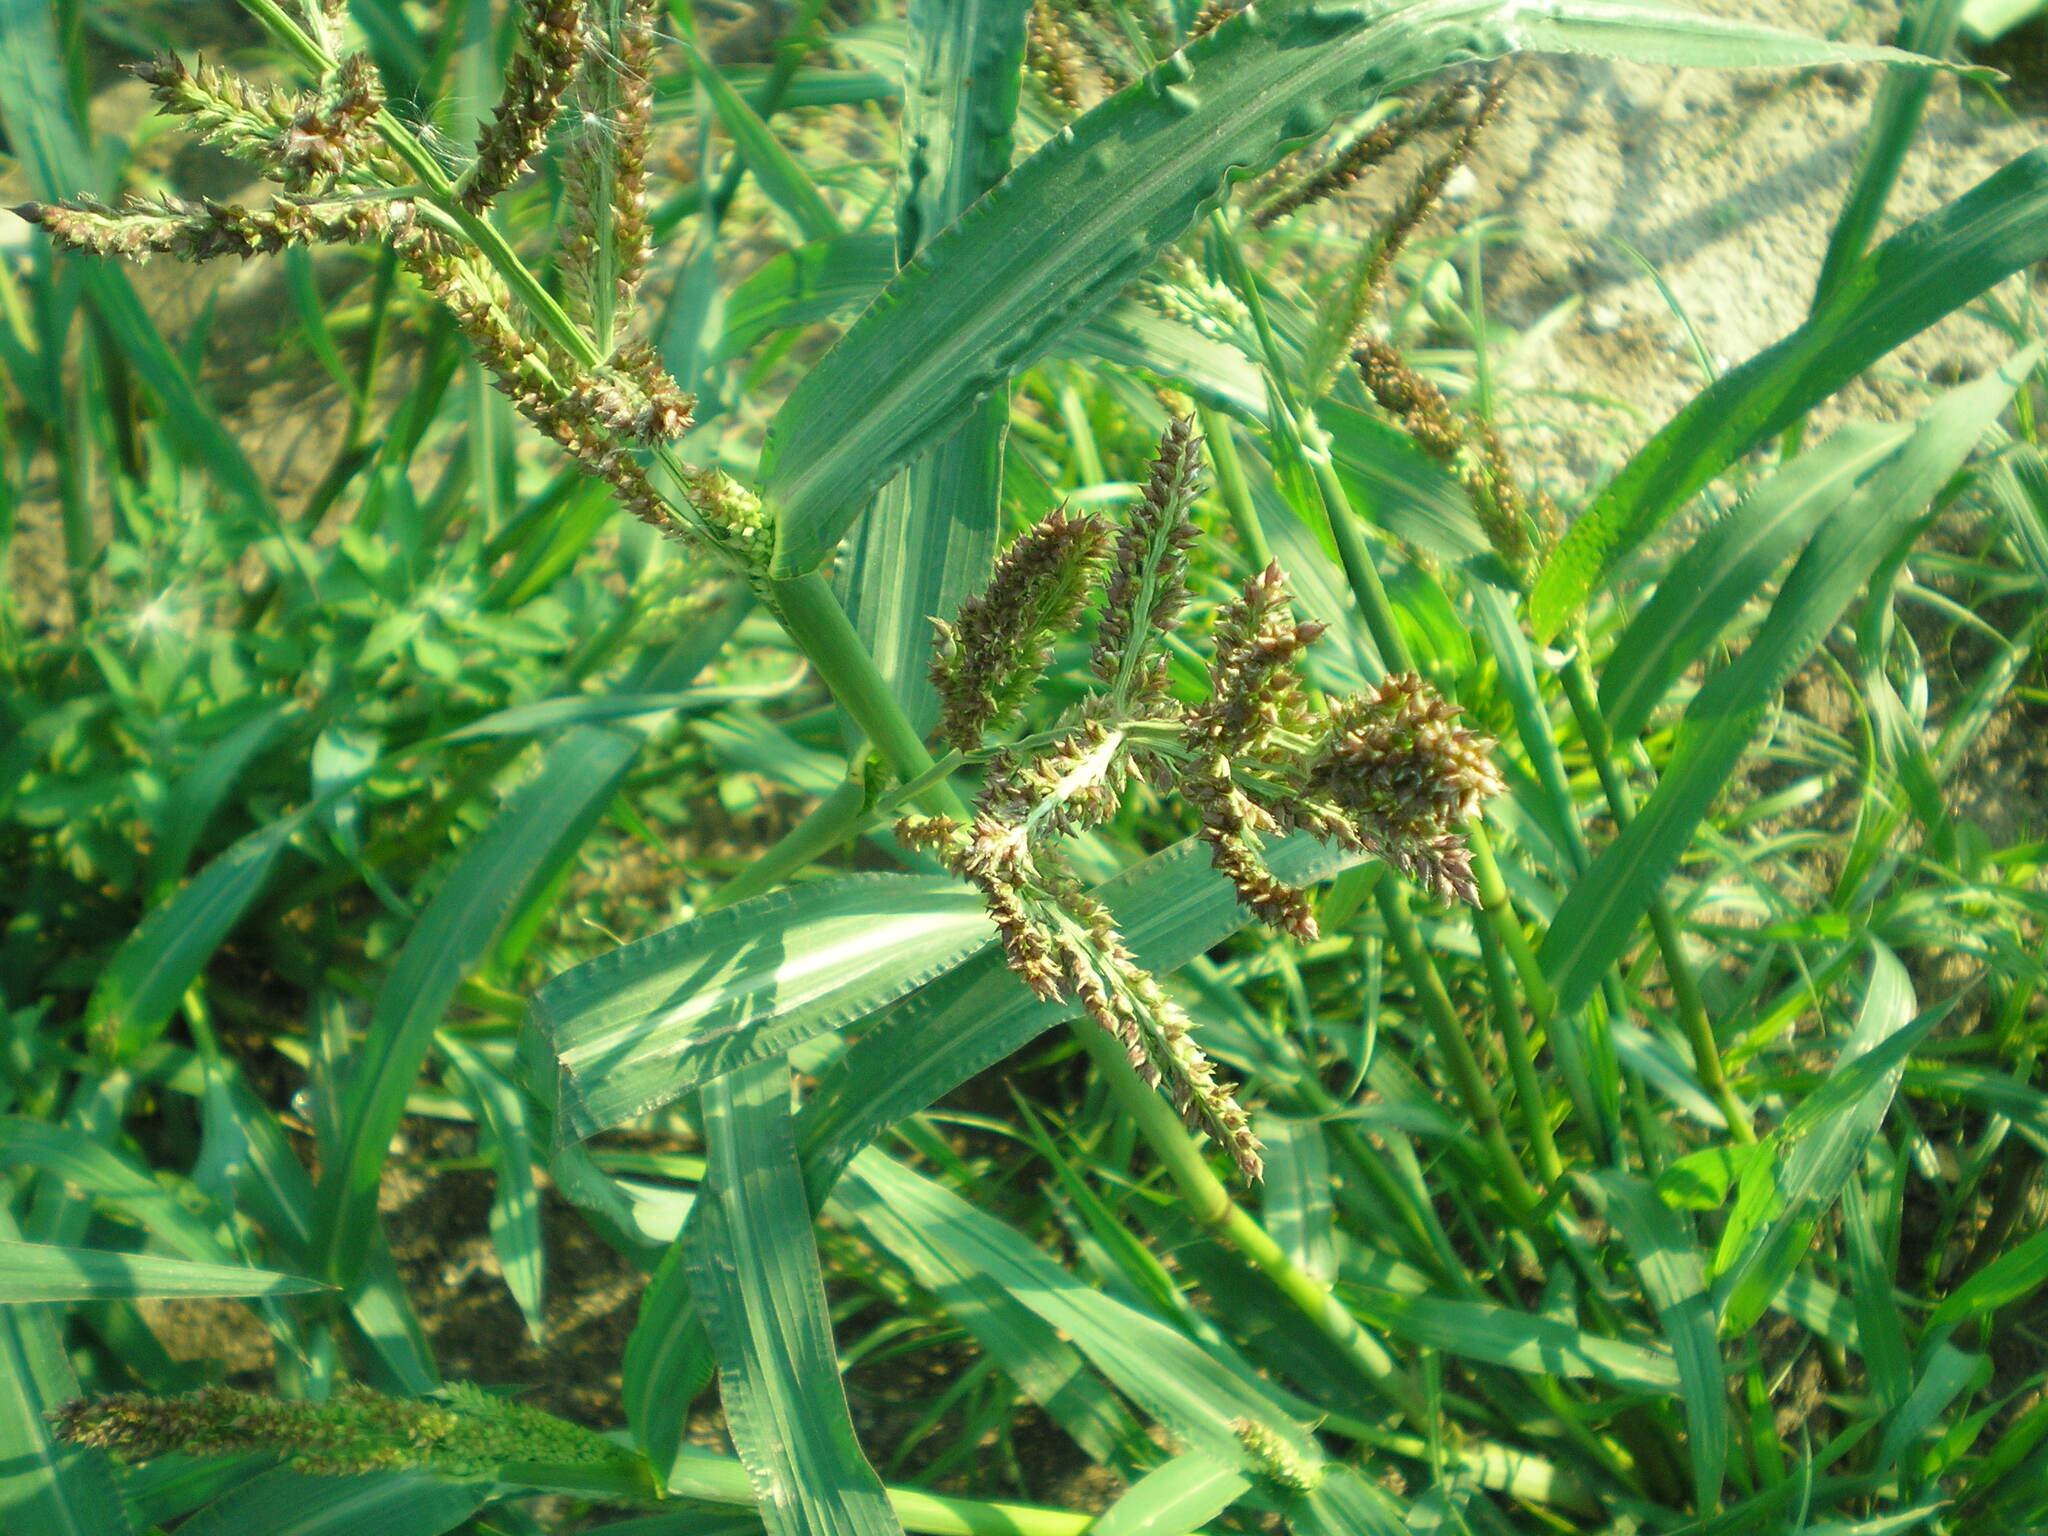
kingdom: Plantae
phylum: Tracheophyta
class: Liliopsida
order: Poales
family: Poaceae
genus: Echinochloa
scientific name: Echinochloa crus-galli
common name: Cockspur
